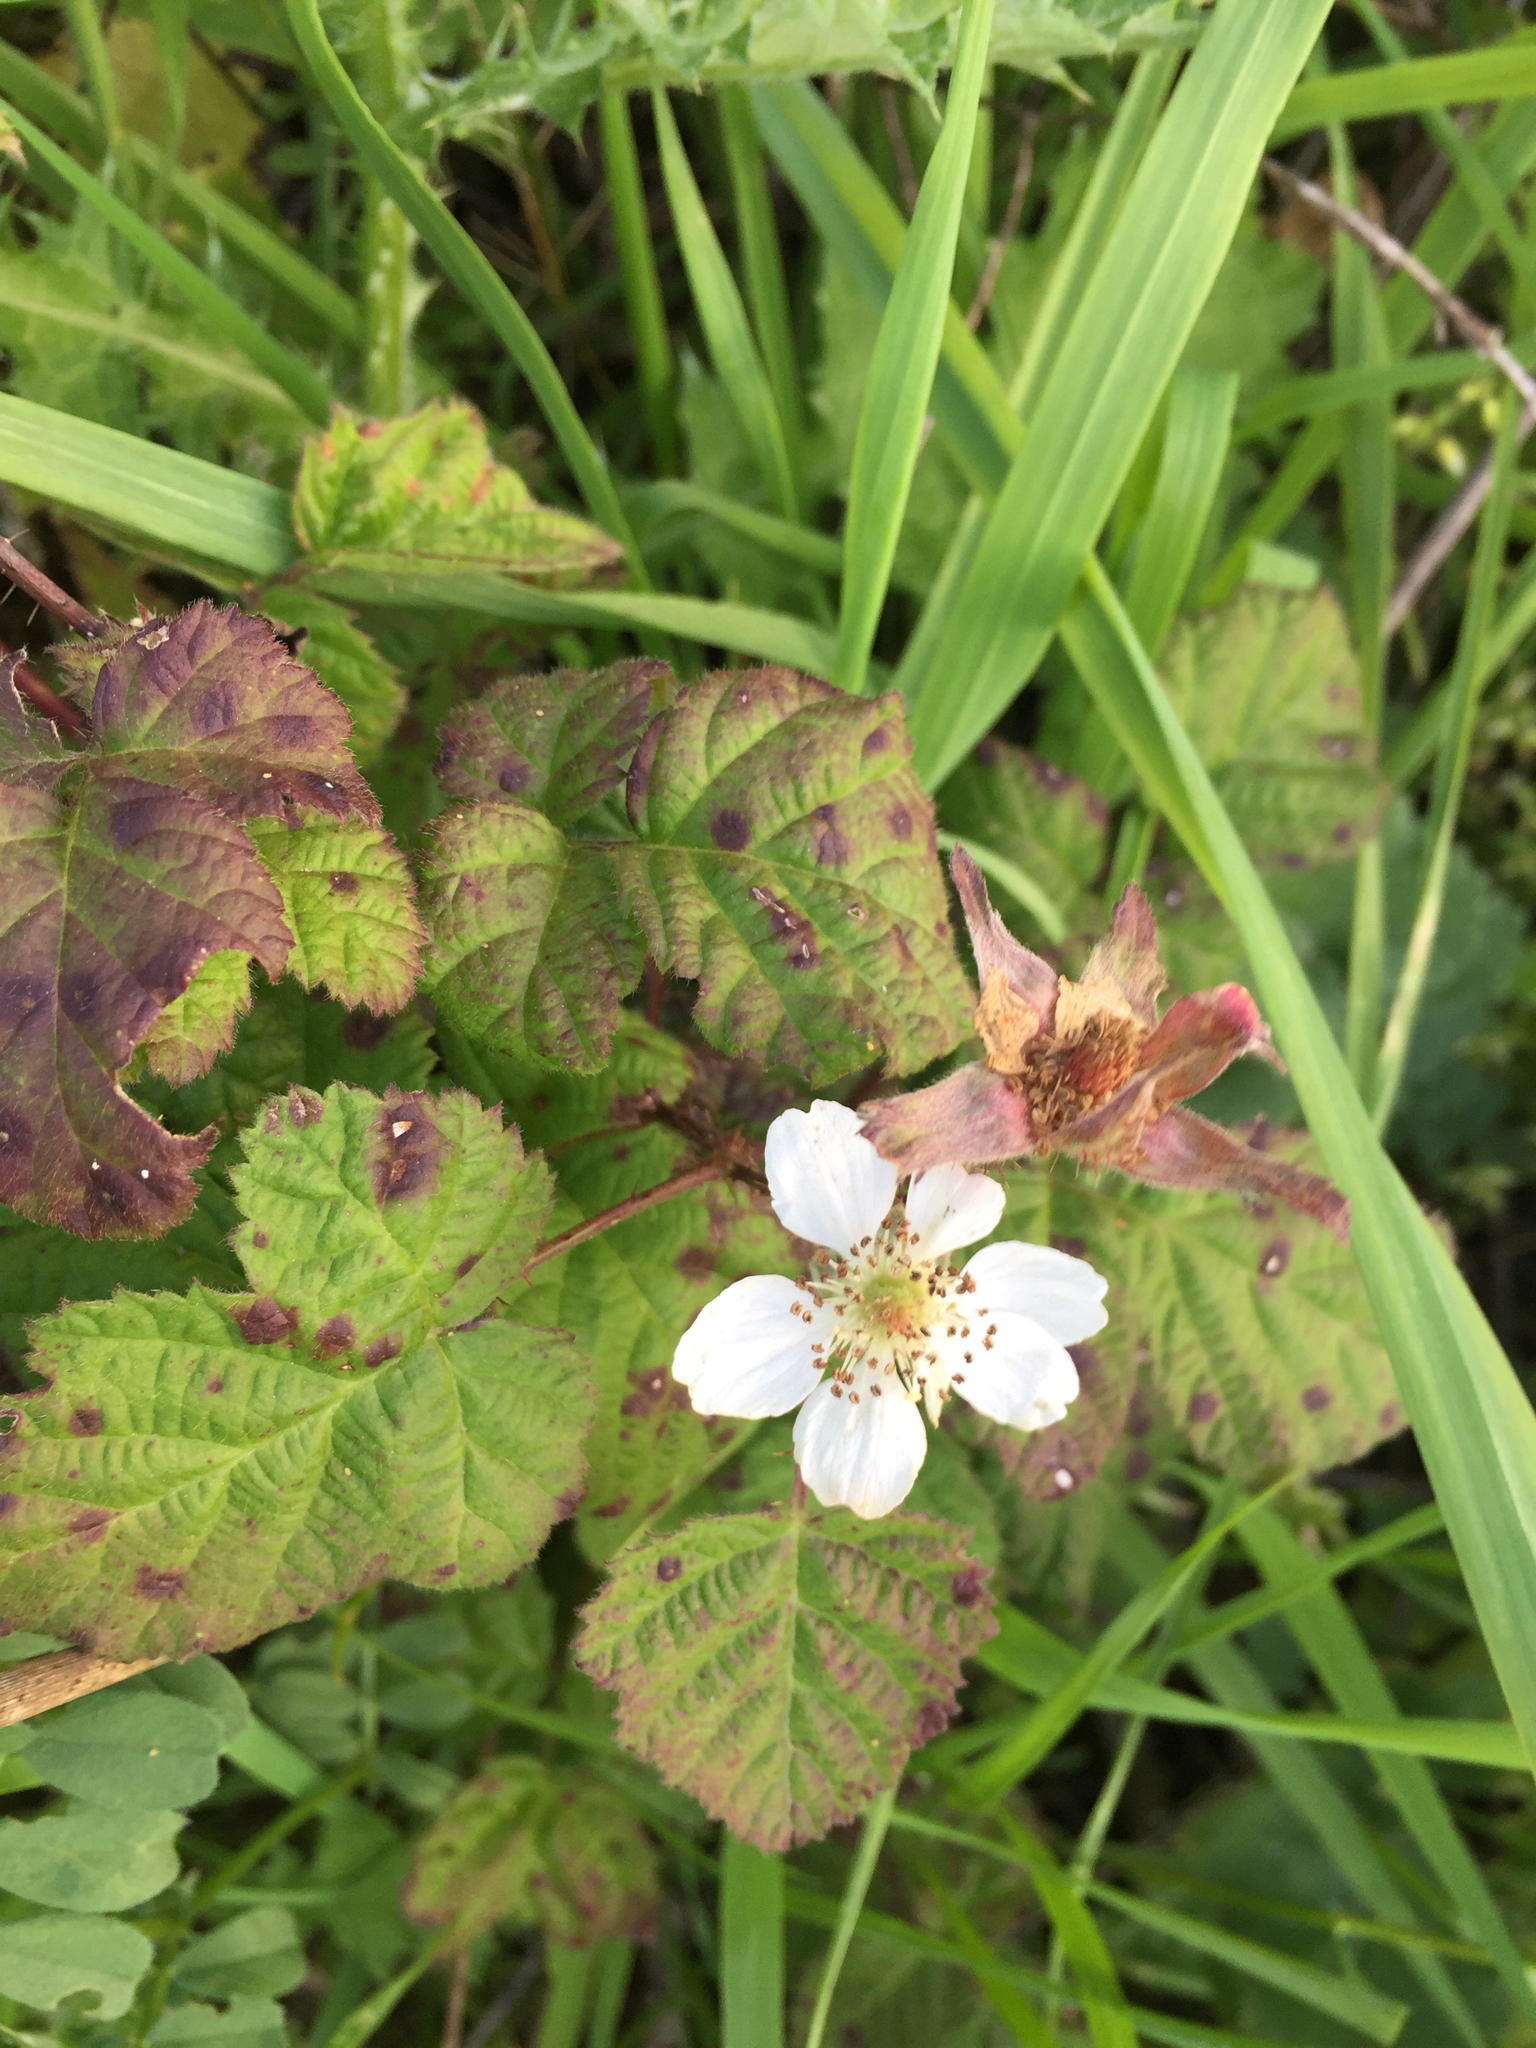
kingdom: Plantae
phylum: Tracheophyta
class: Magnoliopsida
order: Rosales
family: Rosaceae
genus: Rubus
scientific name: Rubus ursinus
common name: Pacific blackberry
